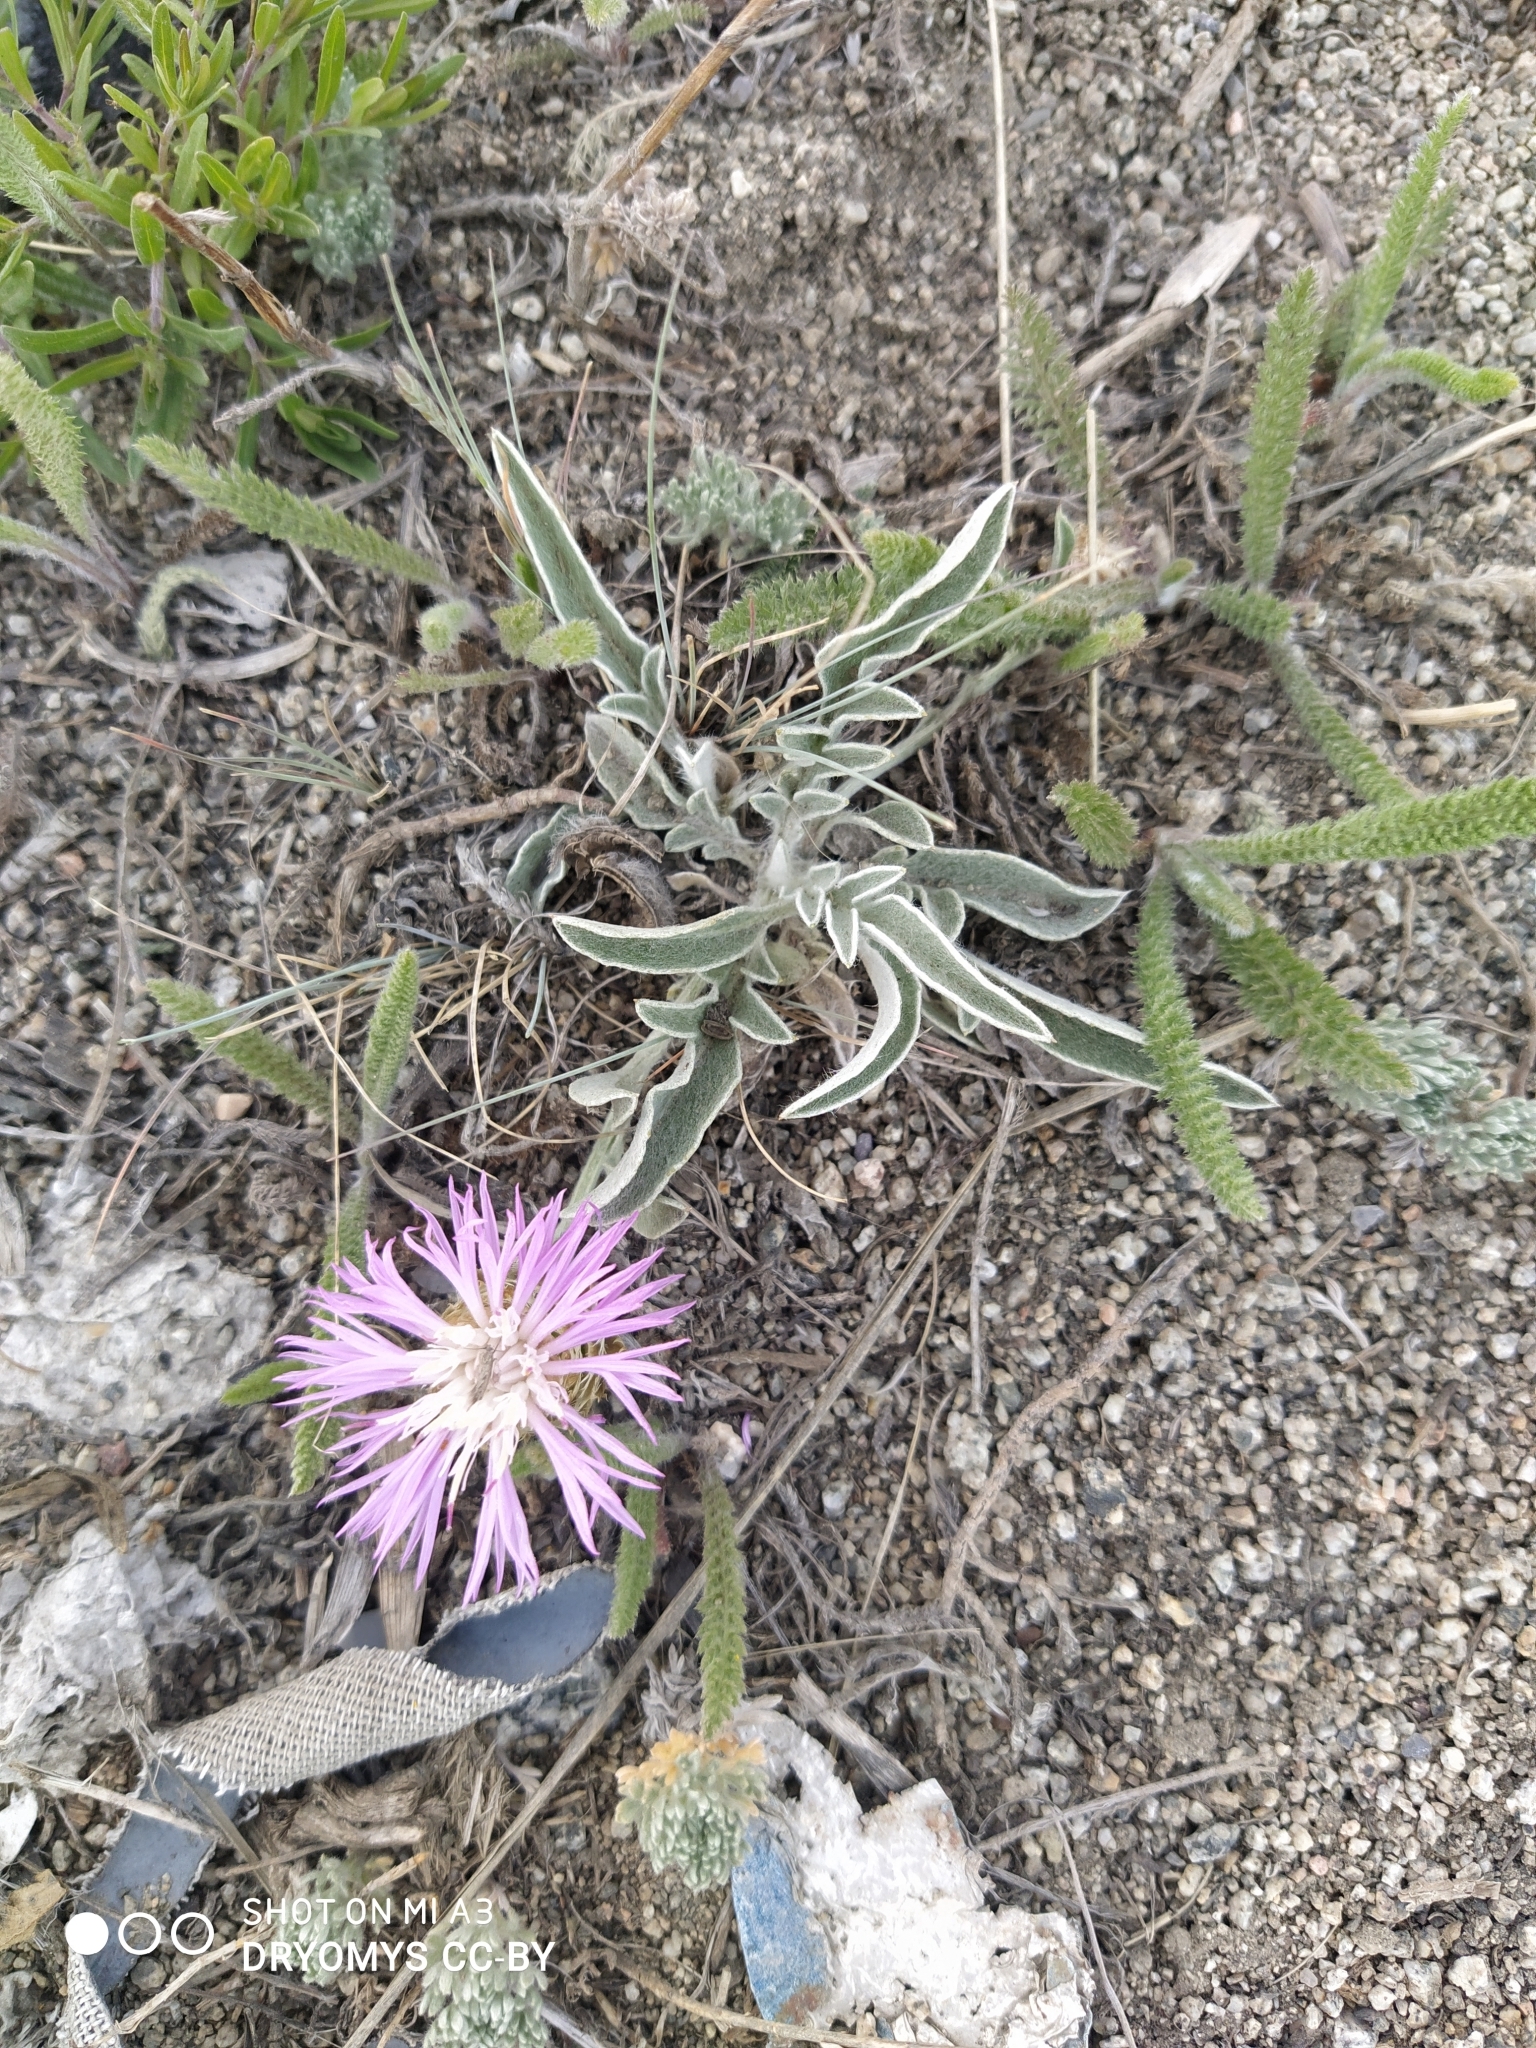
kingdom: Plantae
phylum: Tracheophyta
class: Magnoliopsida
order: Asterales
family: Asteraceae
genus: Psephellus
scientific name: Psephellus sibiricus
